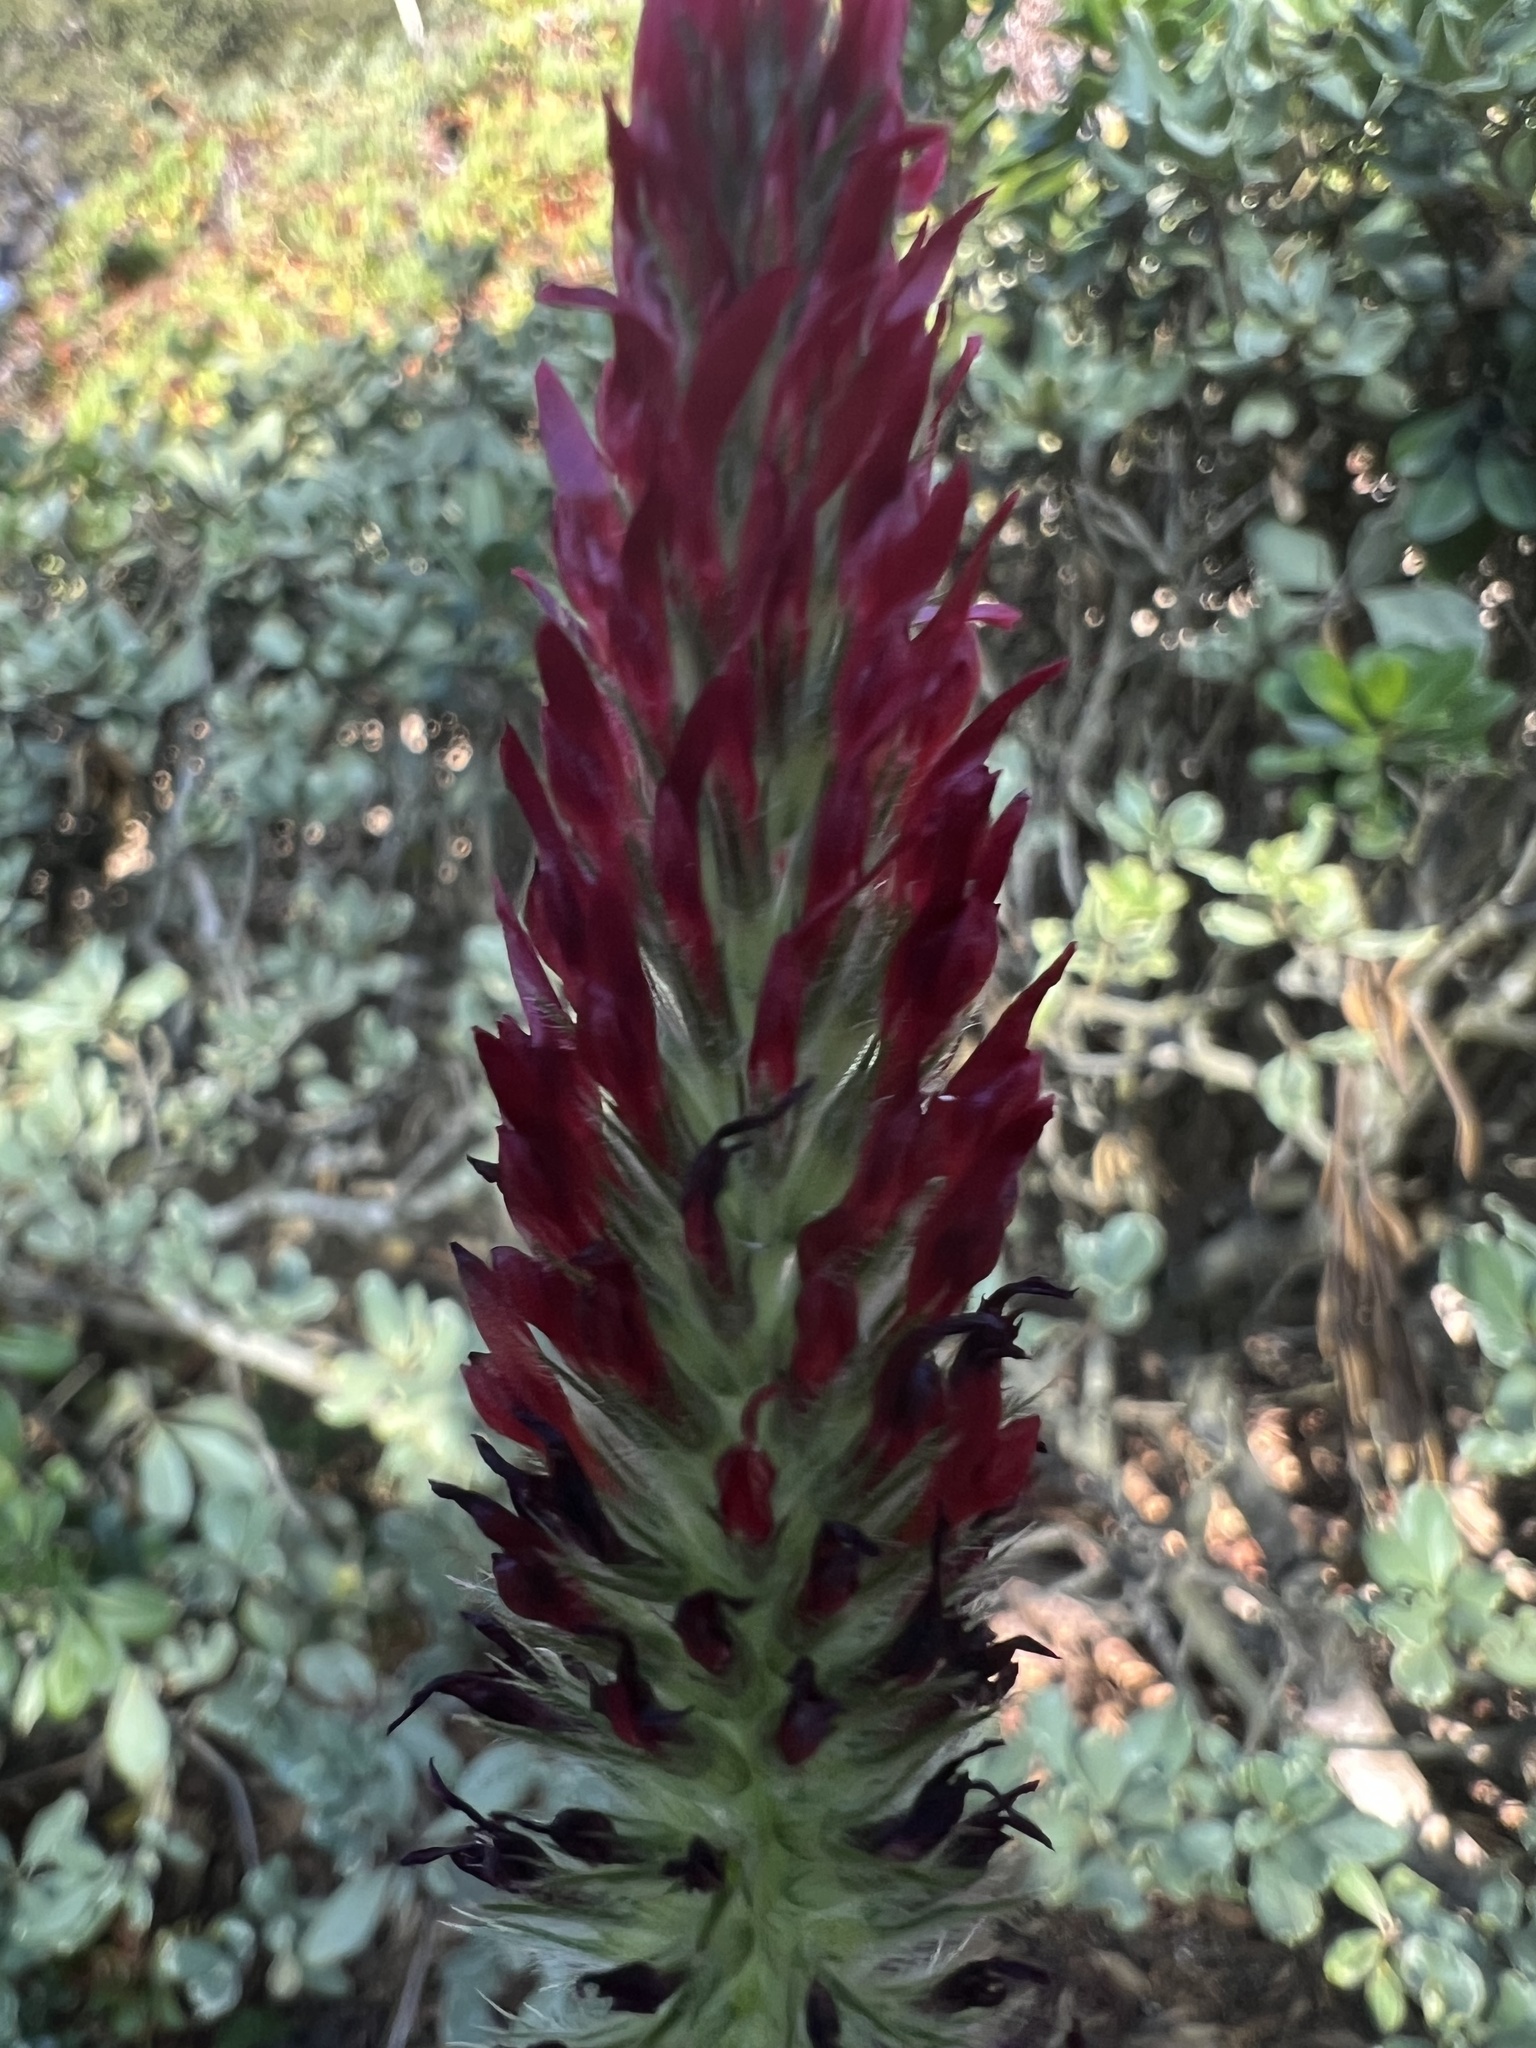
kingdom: Plantae
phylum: Tracheophyta
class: Magnoliopsida
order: Fabales
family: Fabaceae
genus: Trifolium
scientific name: Trifolium incarnatum
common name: Crimson clover
